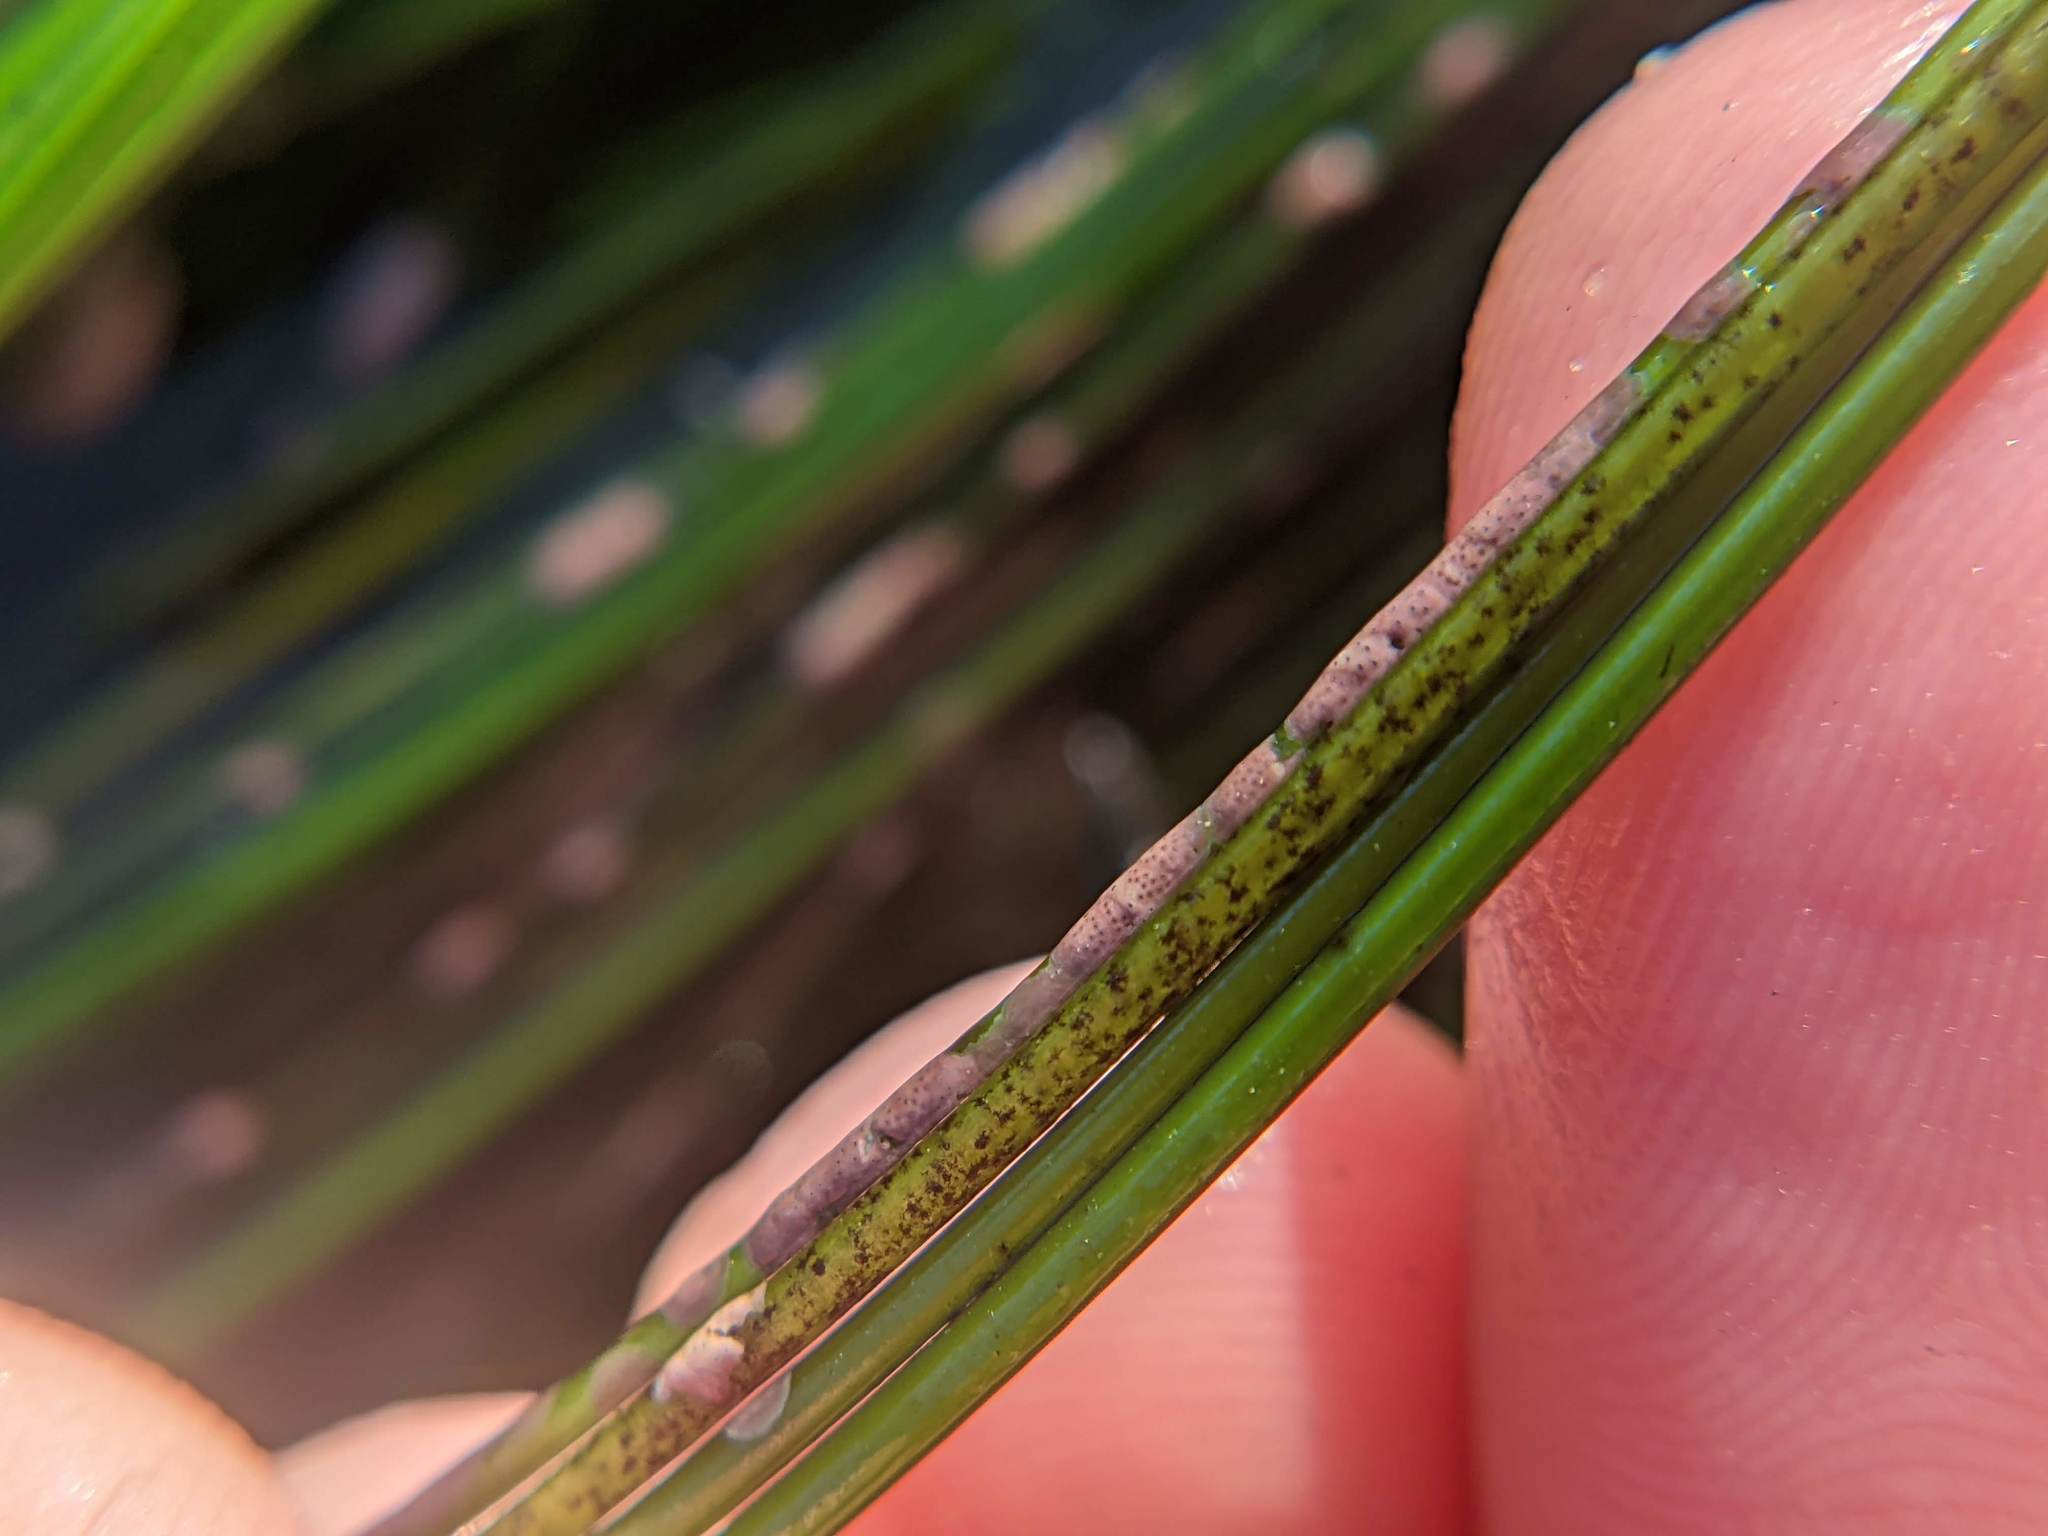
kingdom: Plantae
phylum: Rhodophyta
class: Florideophyceae
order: Corallinales
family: Hapalidiaceae
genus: Melobesia
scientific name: Melobesia mediocris
